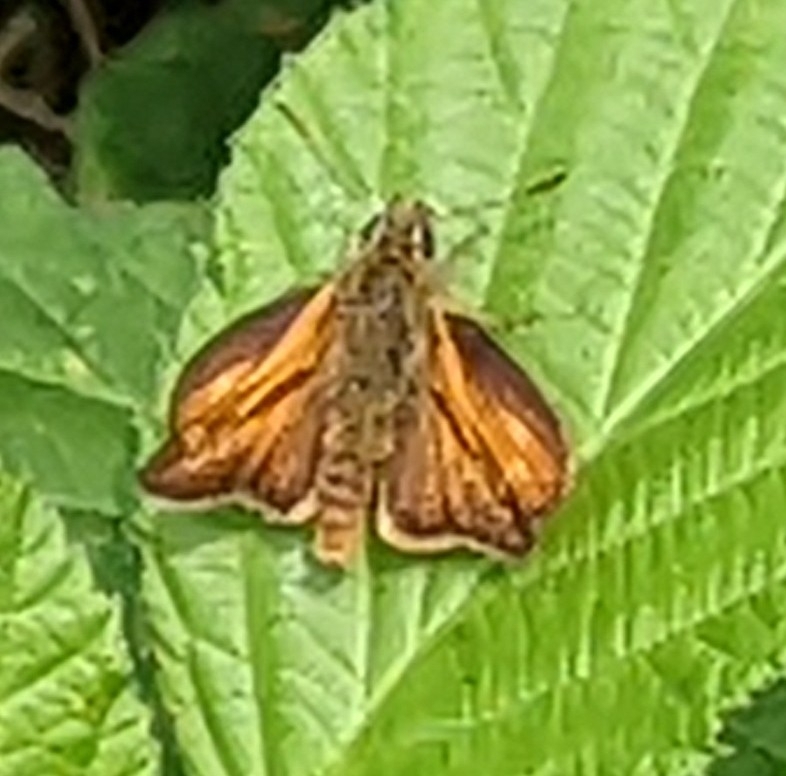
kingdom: Animalia
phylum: Arthropoda
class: Insecta
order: Lepidoptera
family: Hesperiidae
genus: Ochlodes
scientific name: Ochlodes venata
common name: Large skipper
